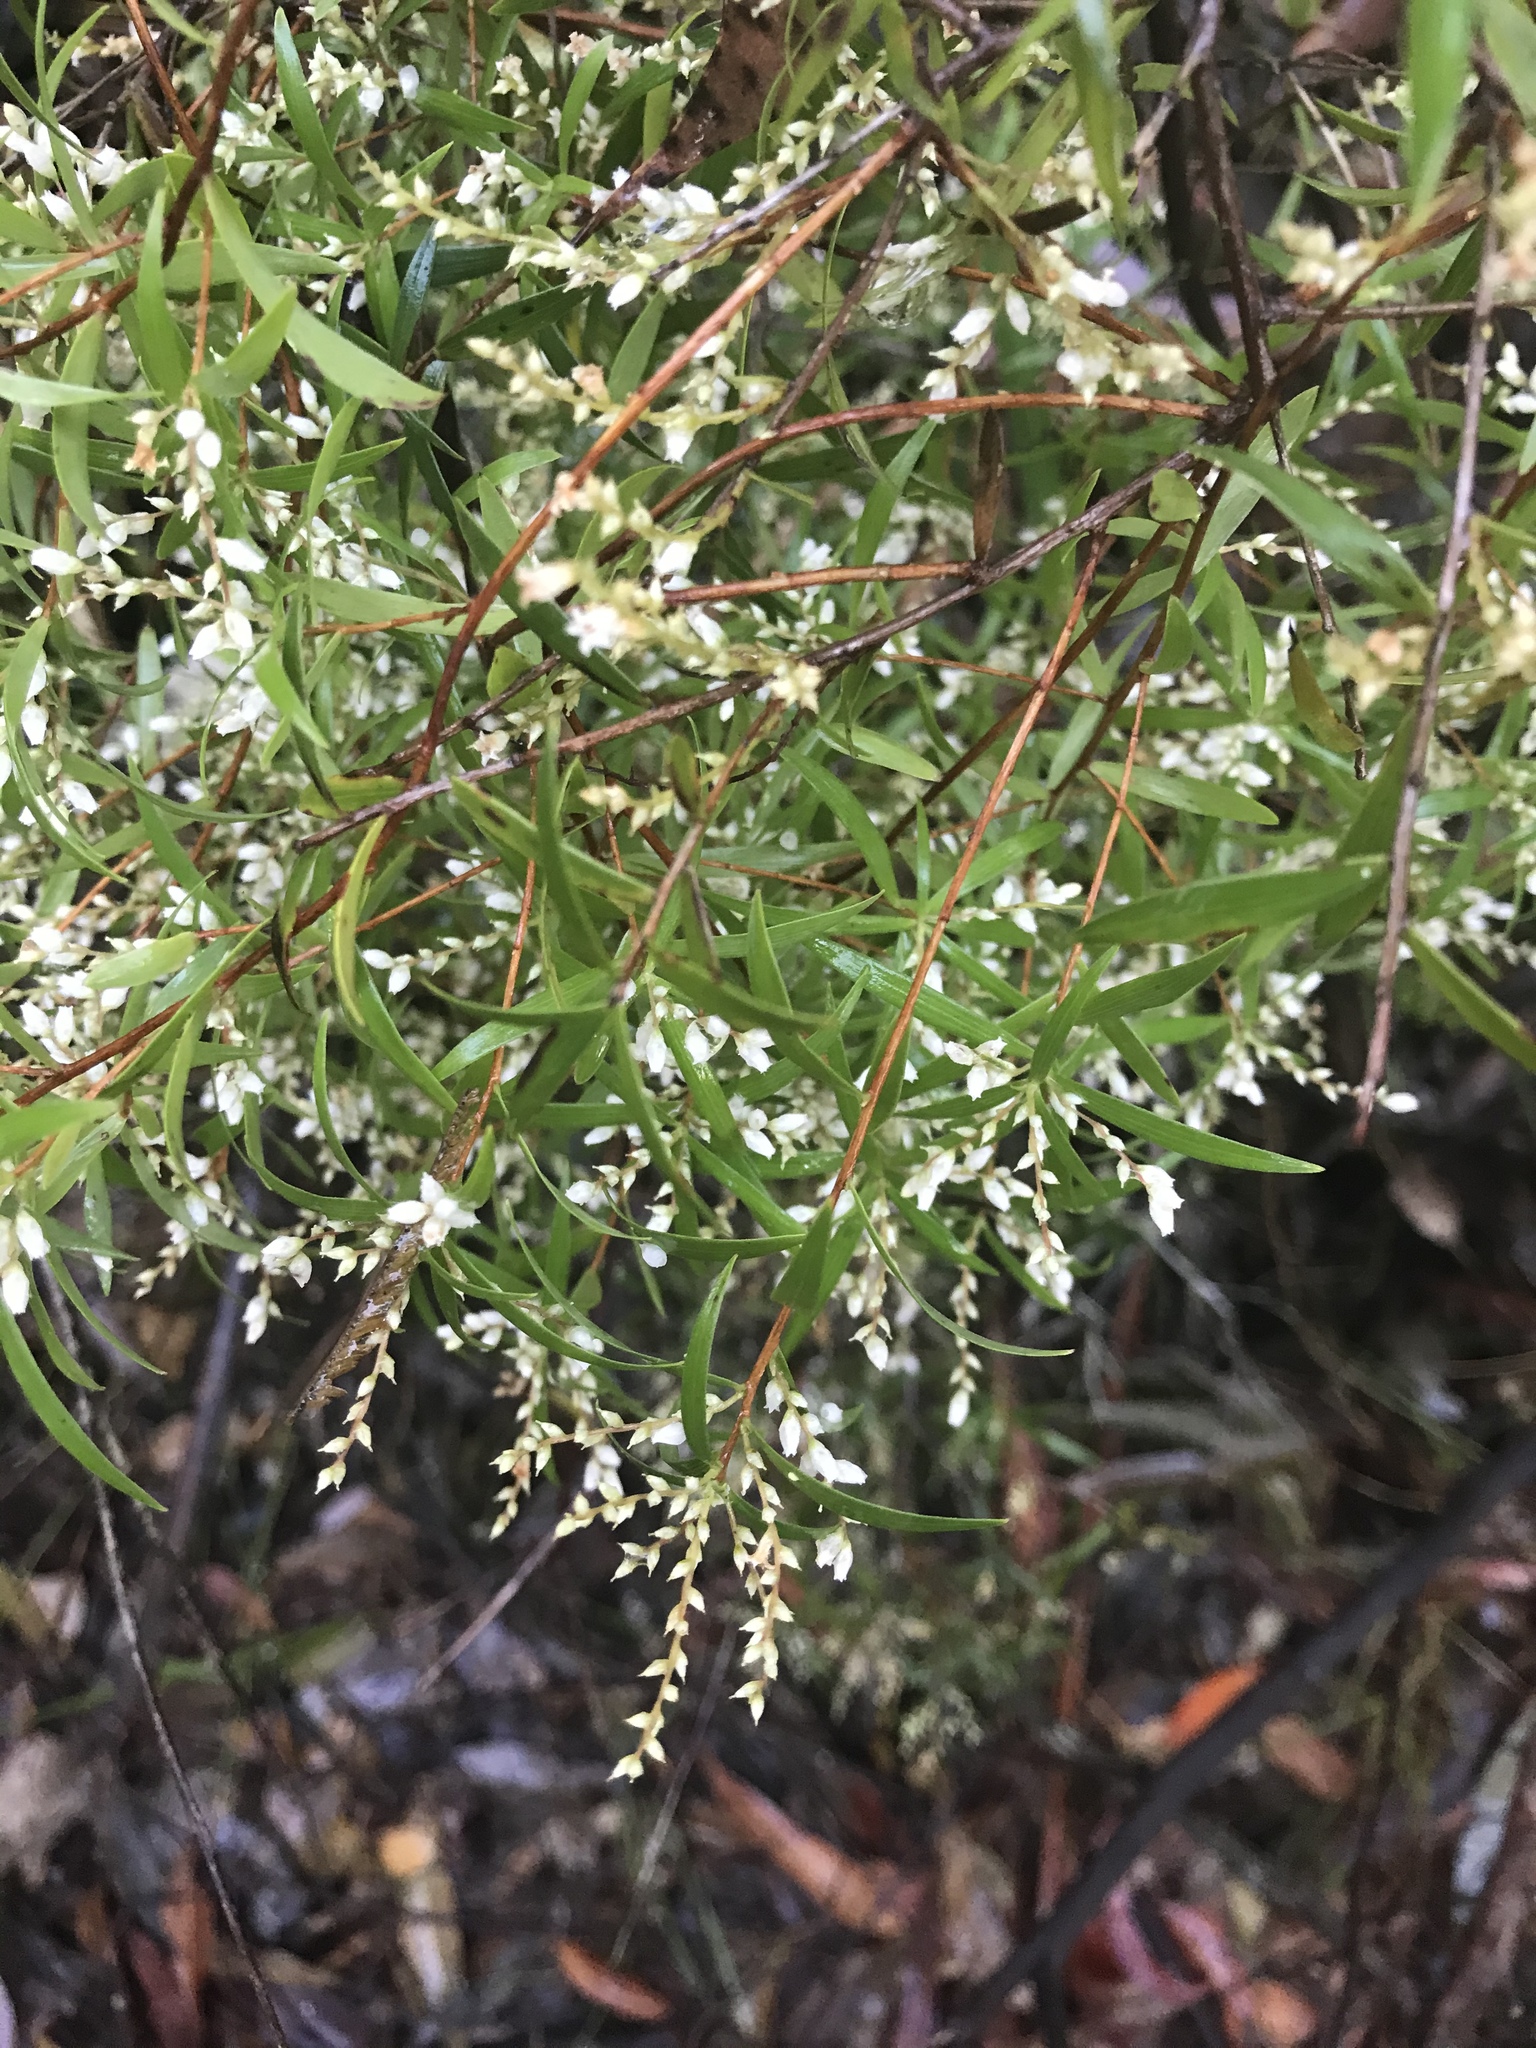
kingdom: Plantae
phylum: Tracheophyta
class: Magnoliopsida
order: Ericales
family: Ericaceae
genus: Leucopogon
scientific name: Leucopogon lanceolatus
